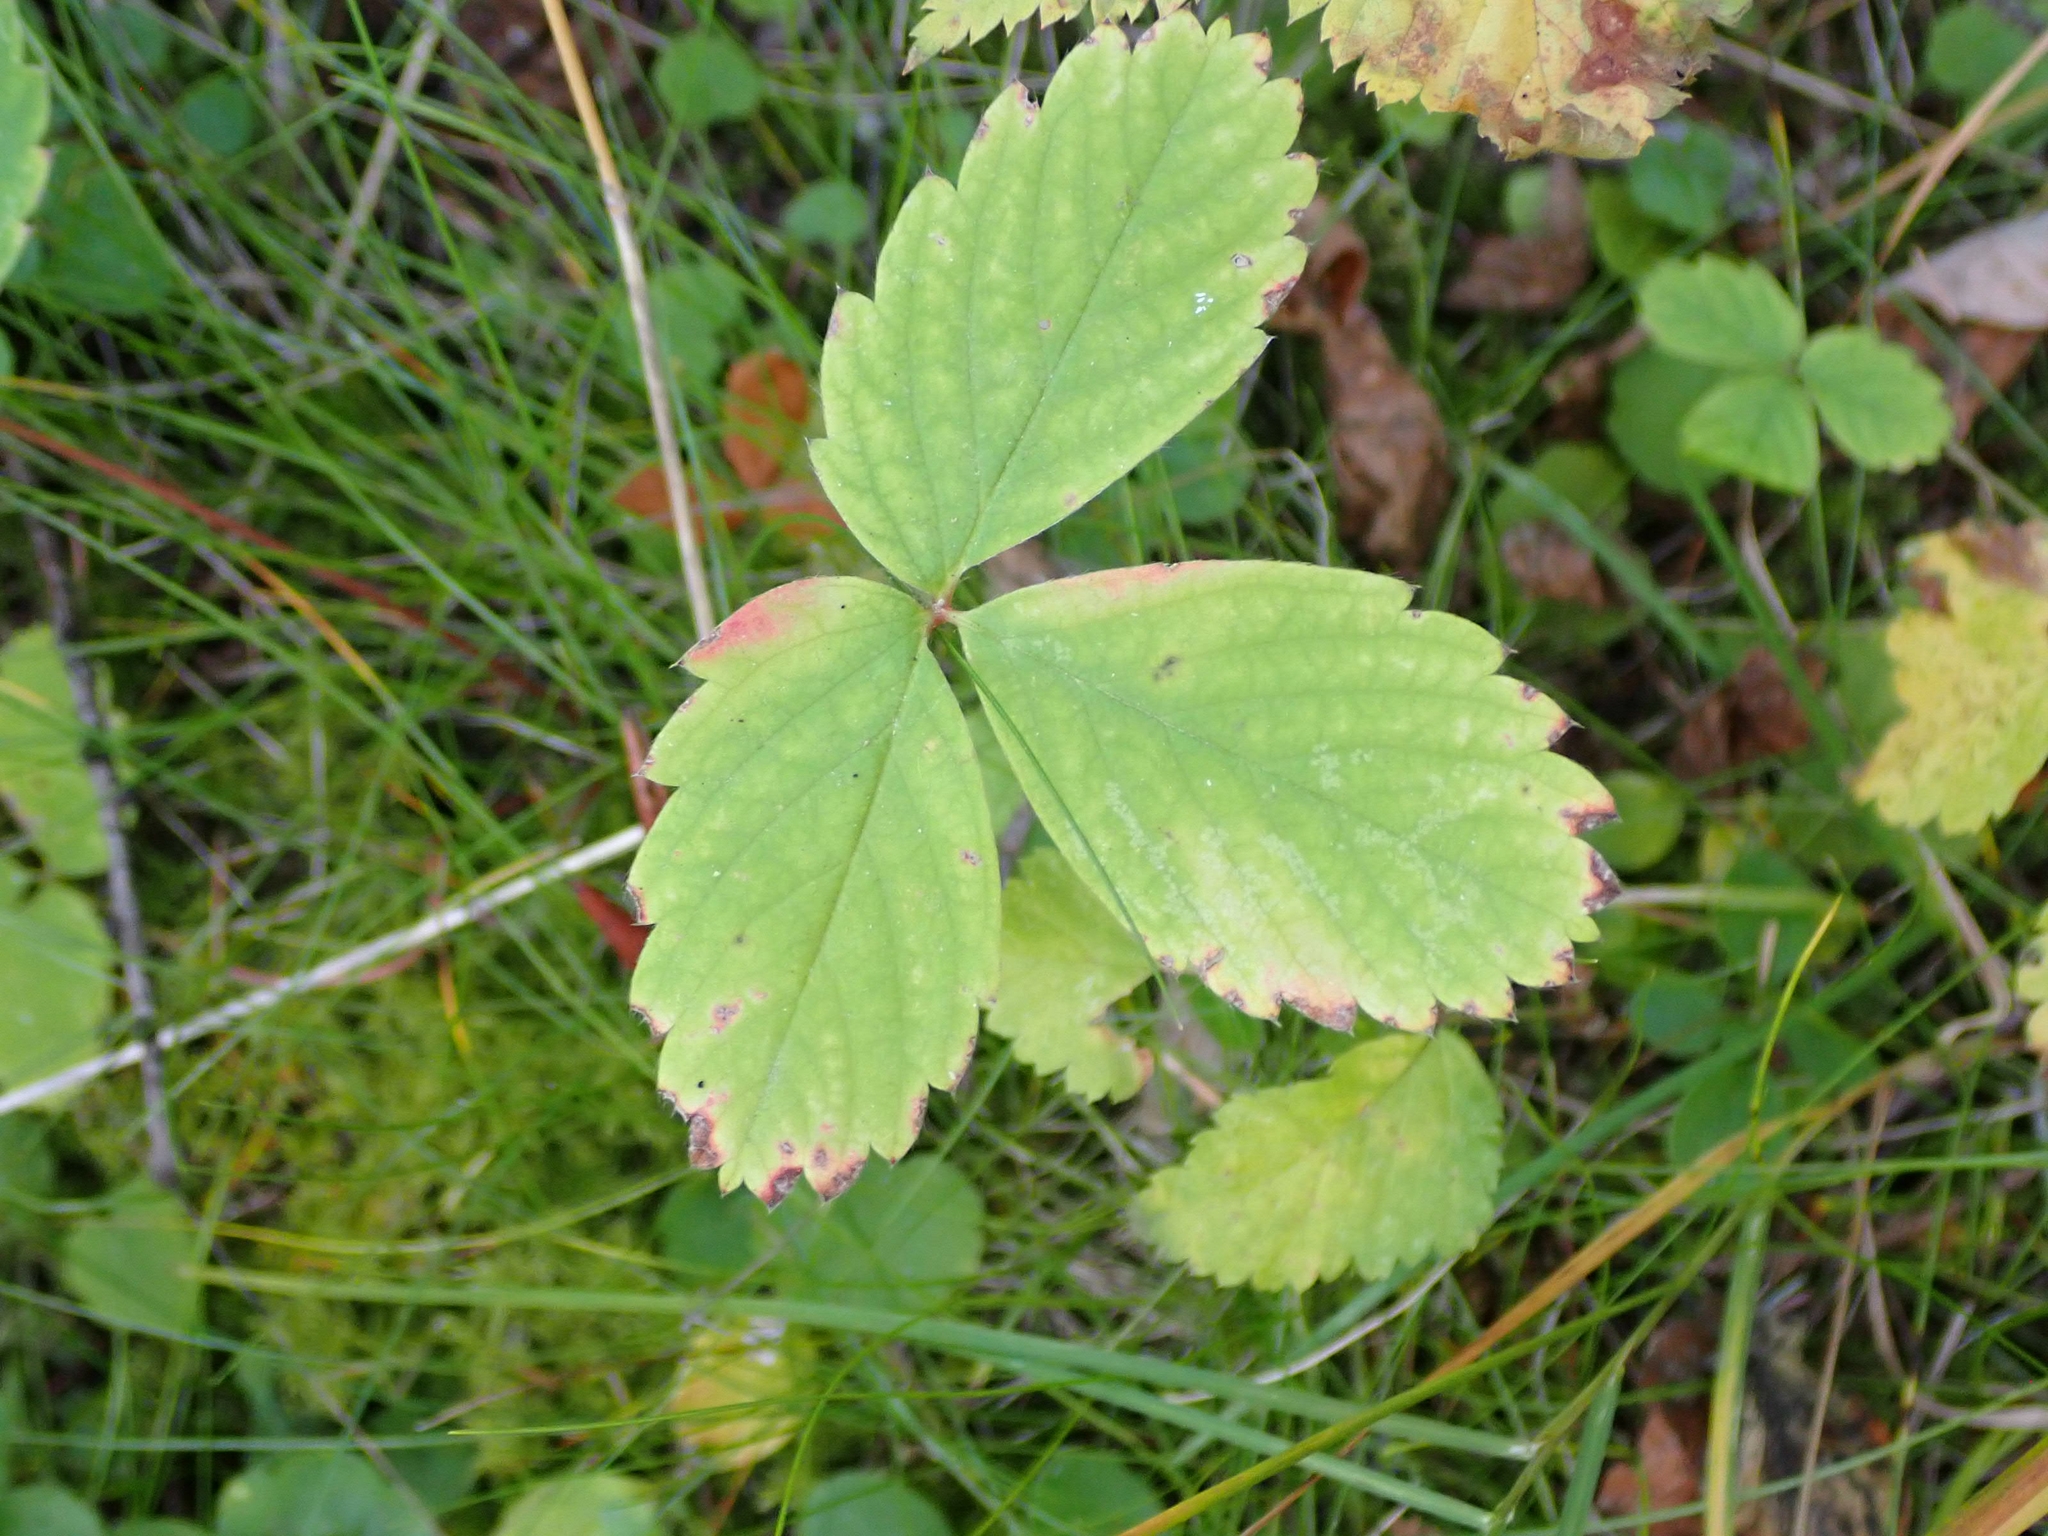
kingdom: Plantae
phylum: Tracheophyta
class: Magnoliopsida
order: Rosales
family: Rosaceae
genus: Fragaria
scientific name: Fragaria virginiana
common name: Thickleaved wild strawberry
